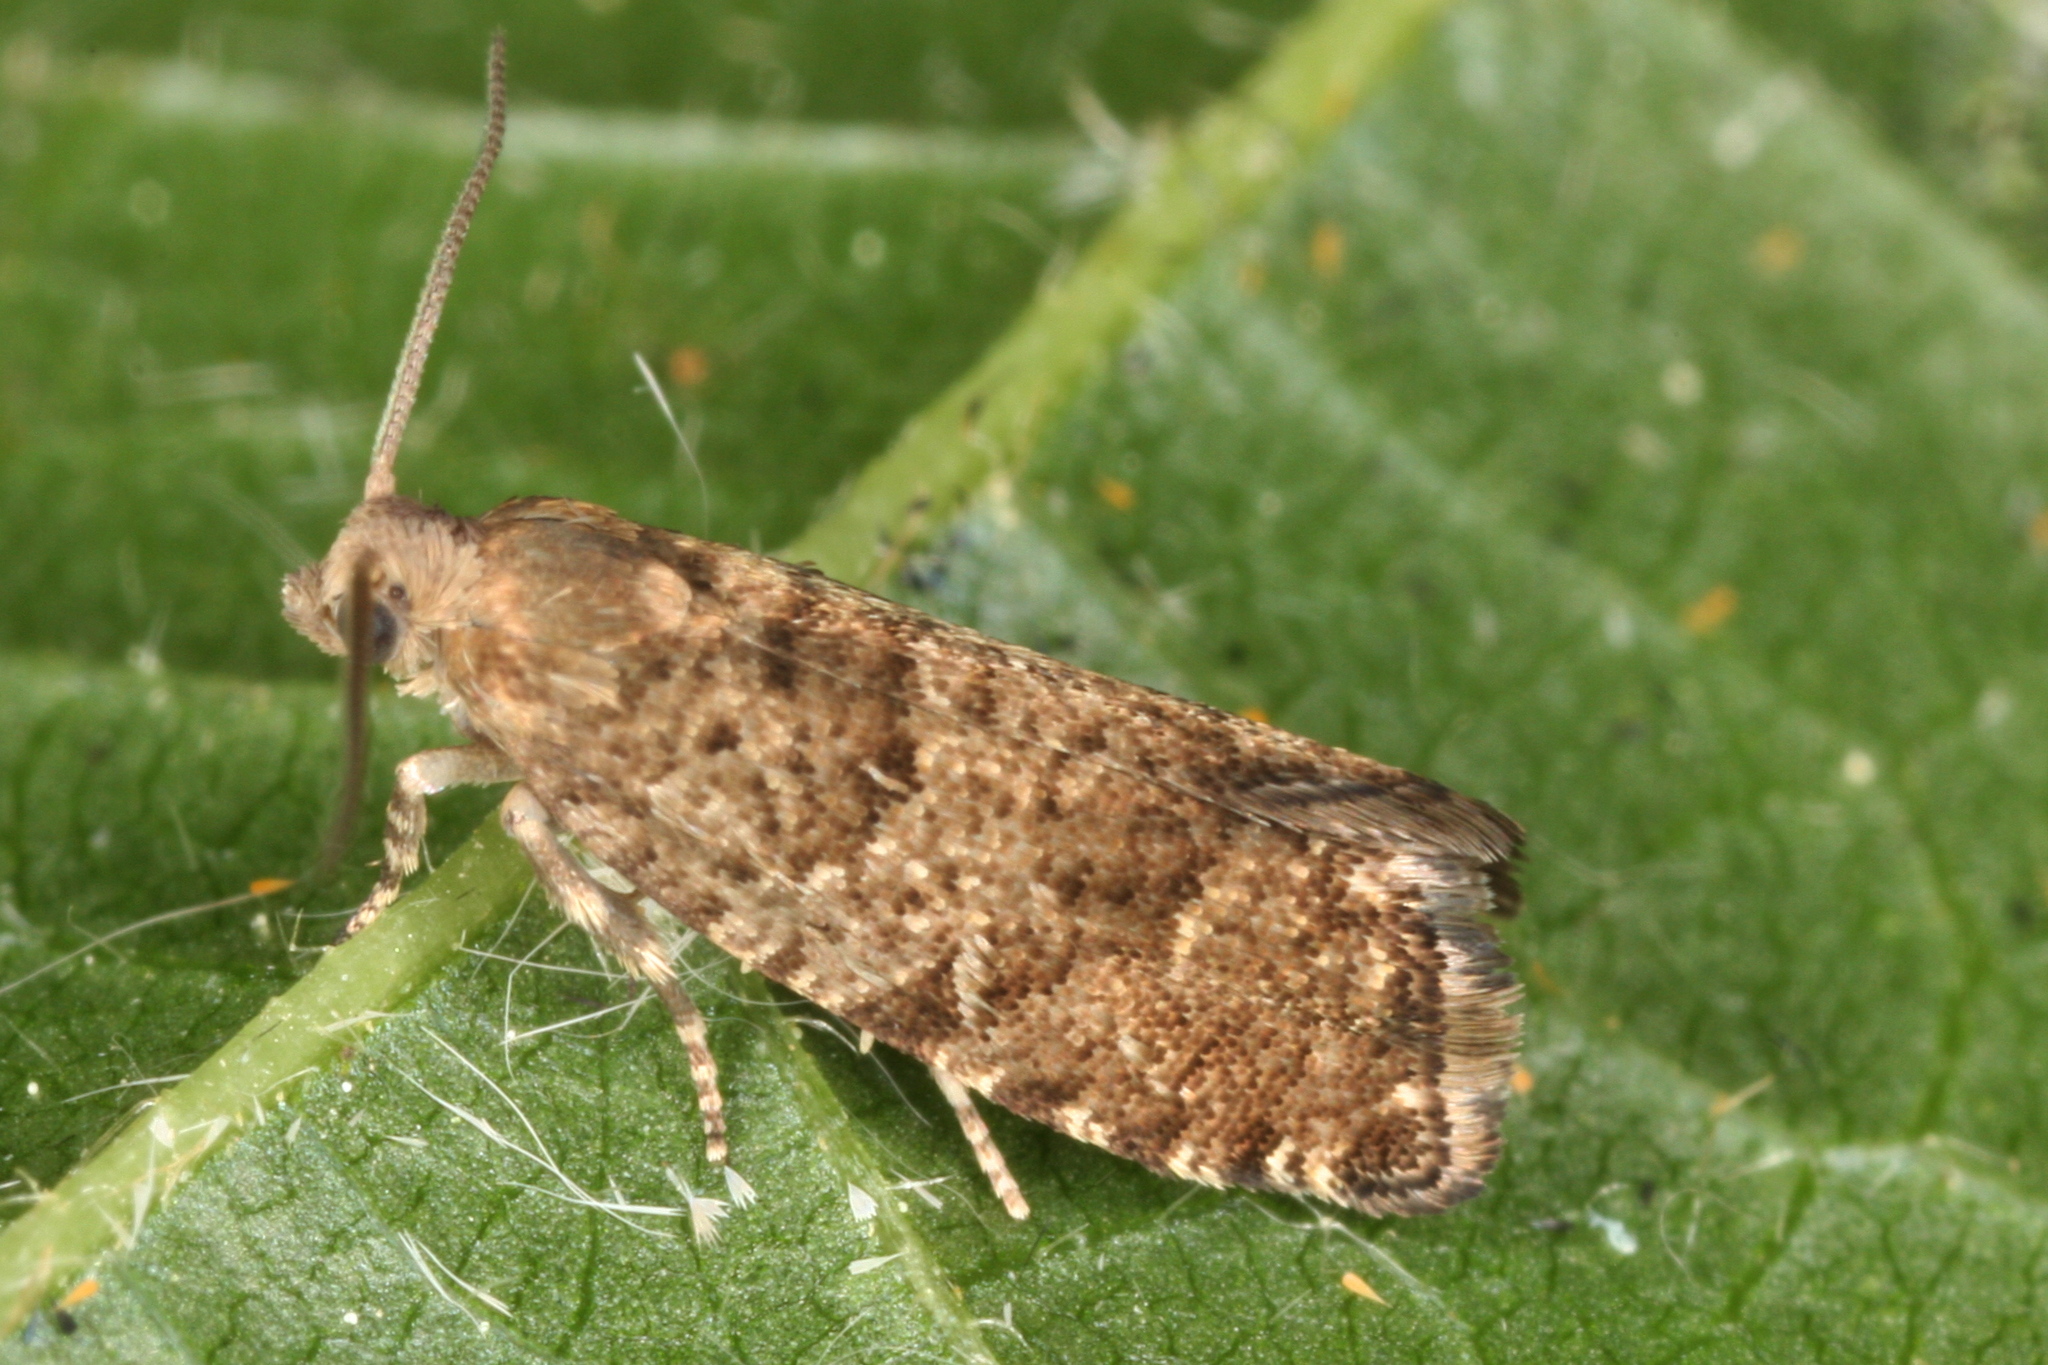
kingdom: Animalia
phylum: Arthropoda
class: Insecta
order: Lepidoptera
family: Tortricidae
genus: Epinotia
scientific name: Epinotia nanana
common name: Leaf roller
